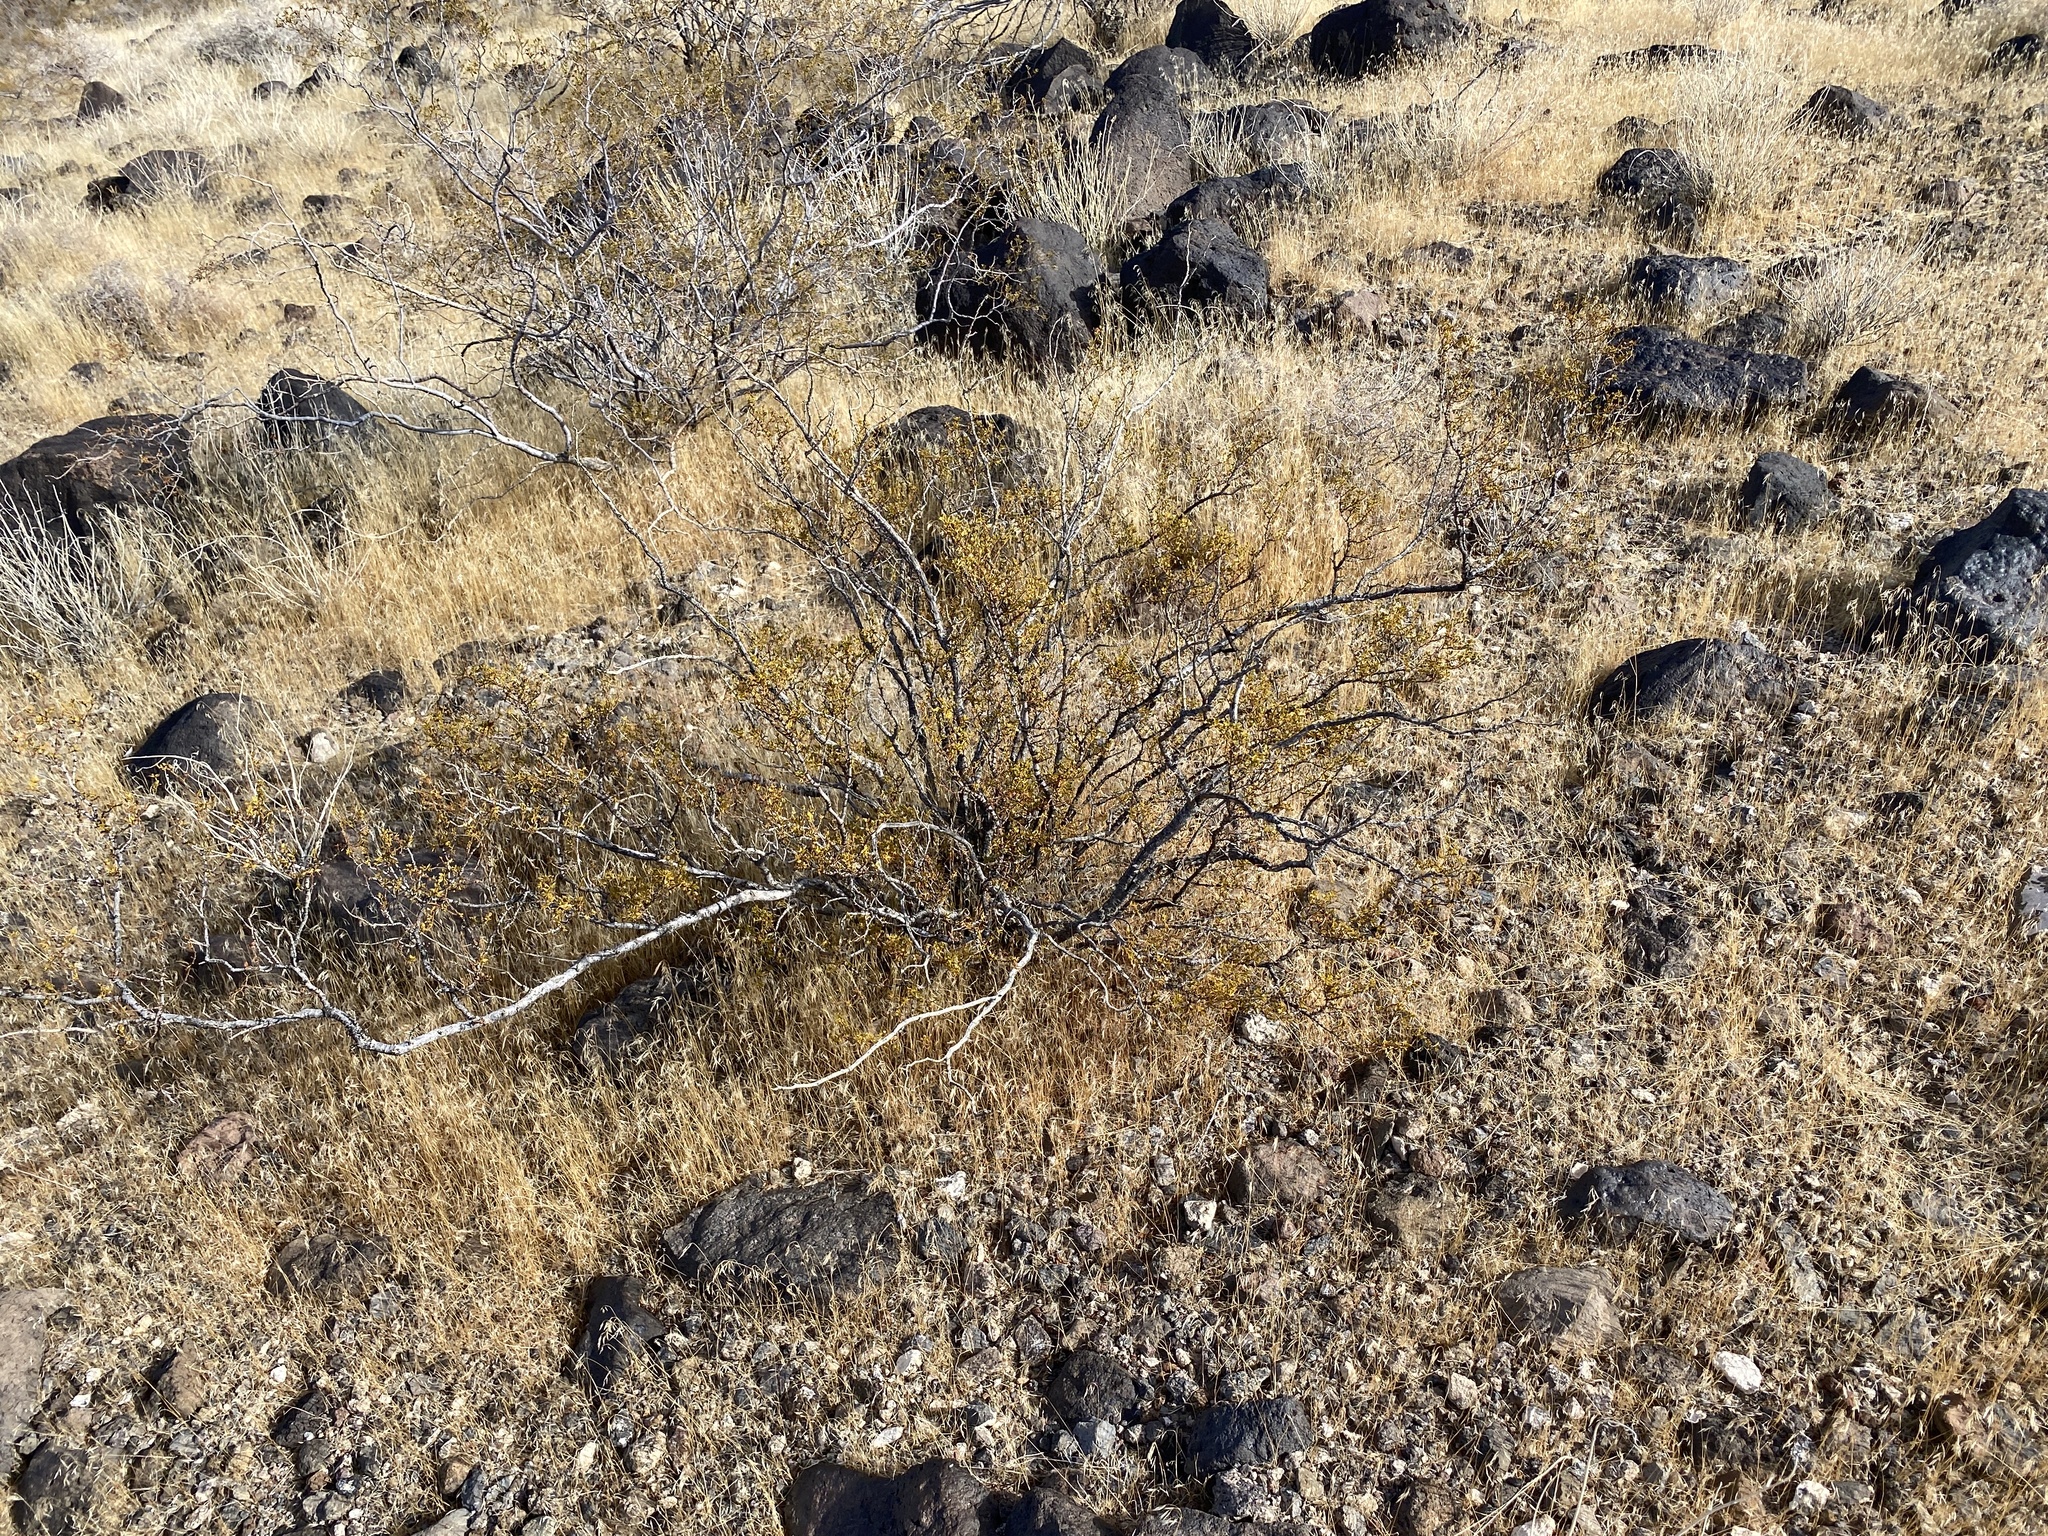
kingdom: Plantae
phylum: Tracheophyta
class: Magnoliopsida
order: Zygophyllales
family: Zygophyllaceae
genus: Larrea
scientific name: Larrea tridentata
